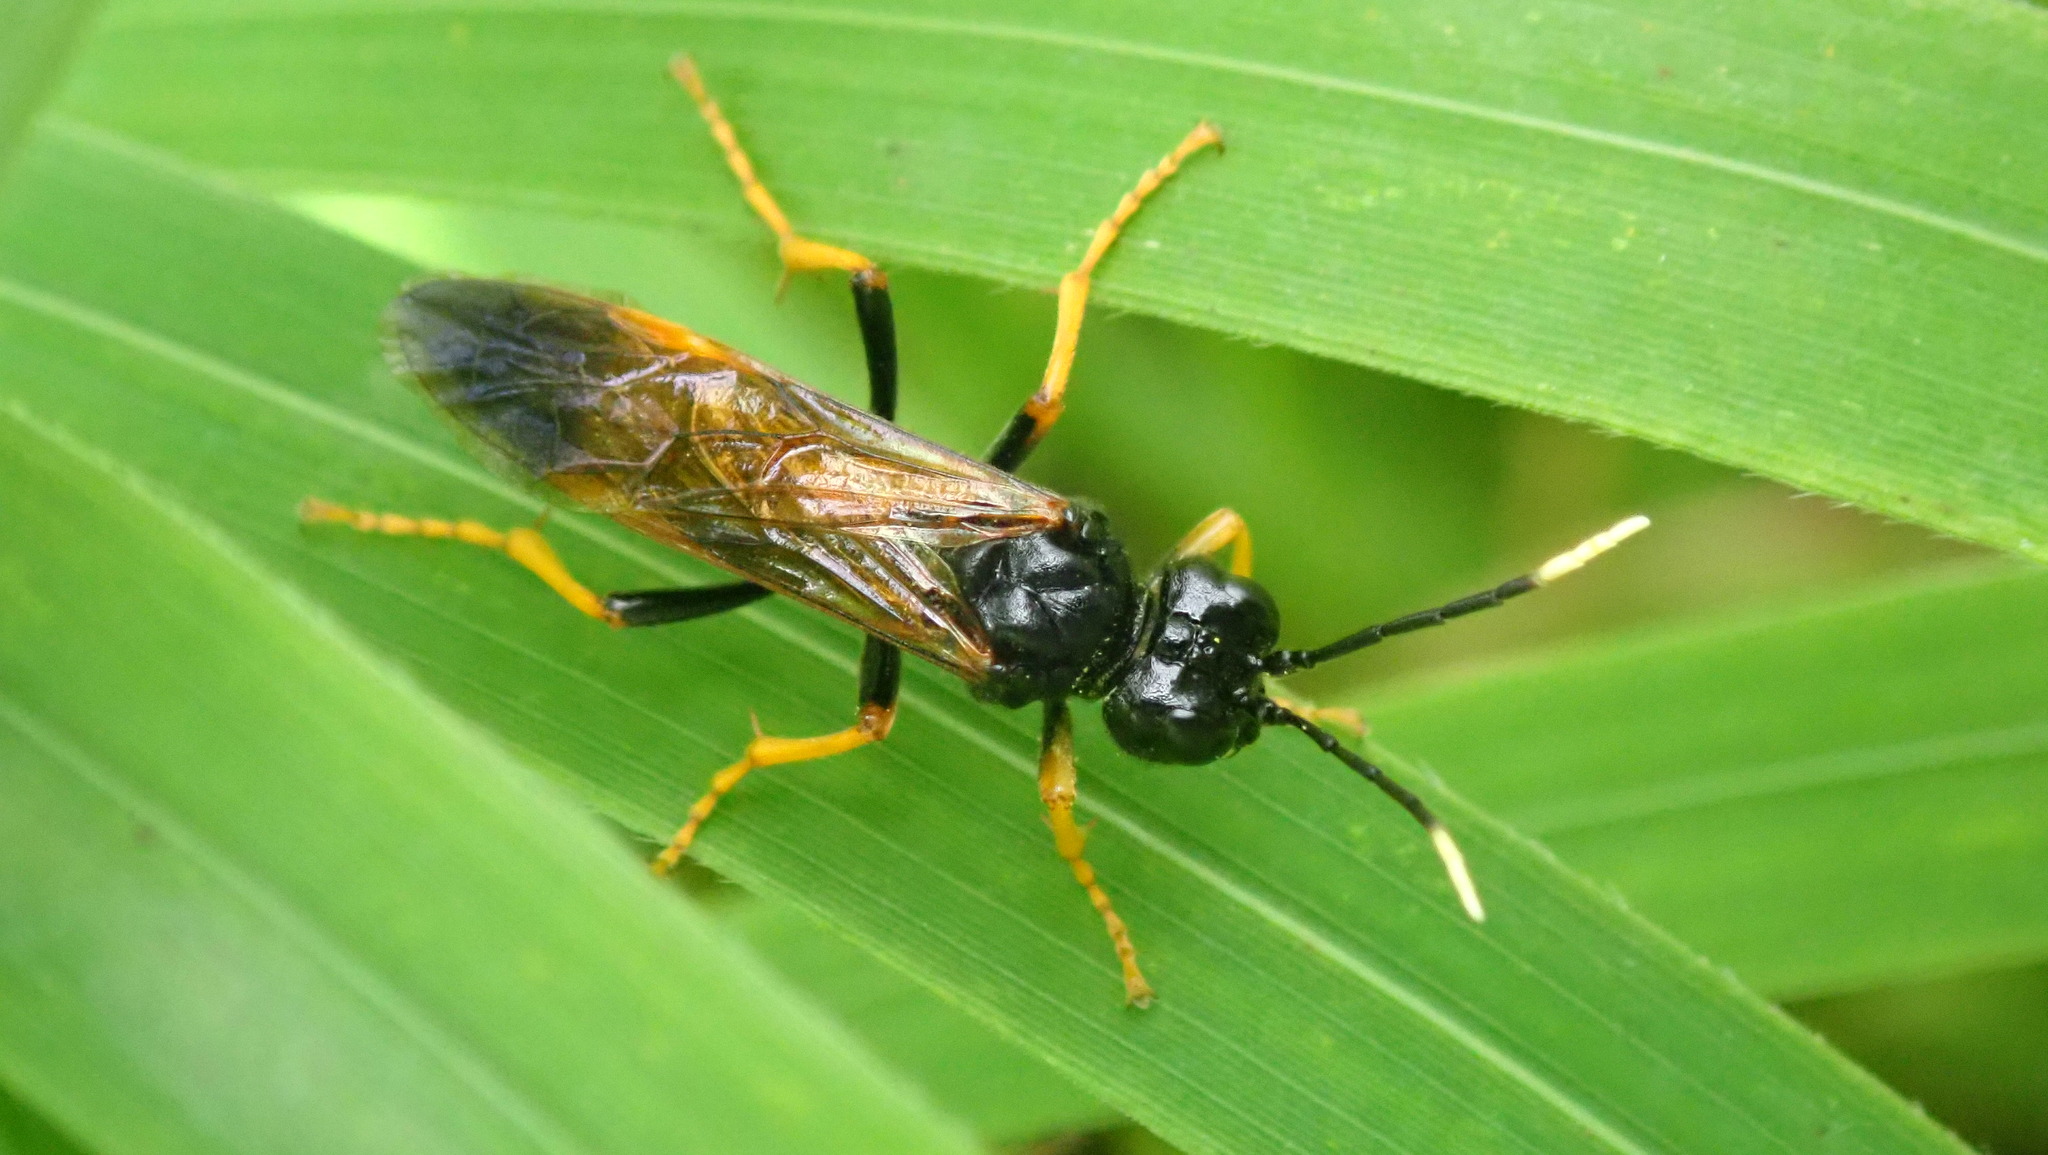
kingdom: Animalia
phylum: Arthropoda
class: Insecta
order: Hymenoptera
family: Tenthredinidae
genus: Tenthredo
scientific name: Tenthredo crassa
